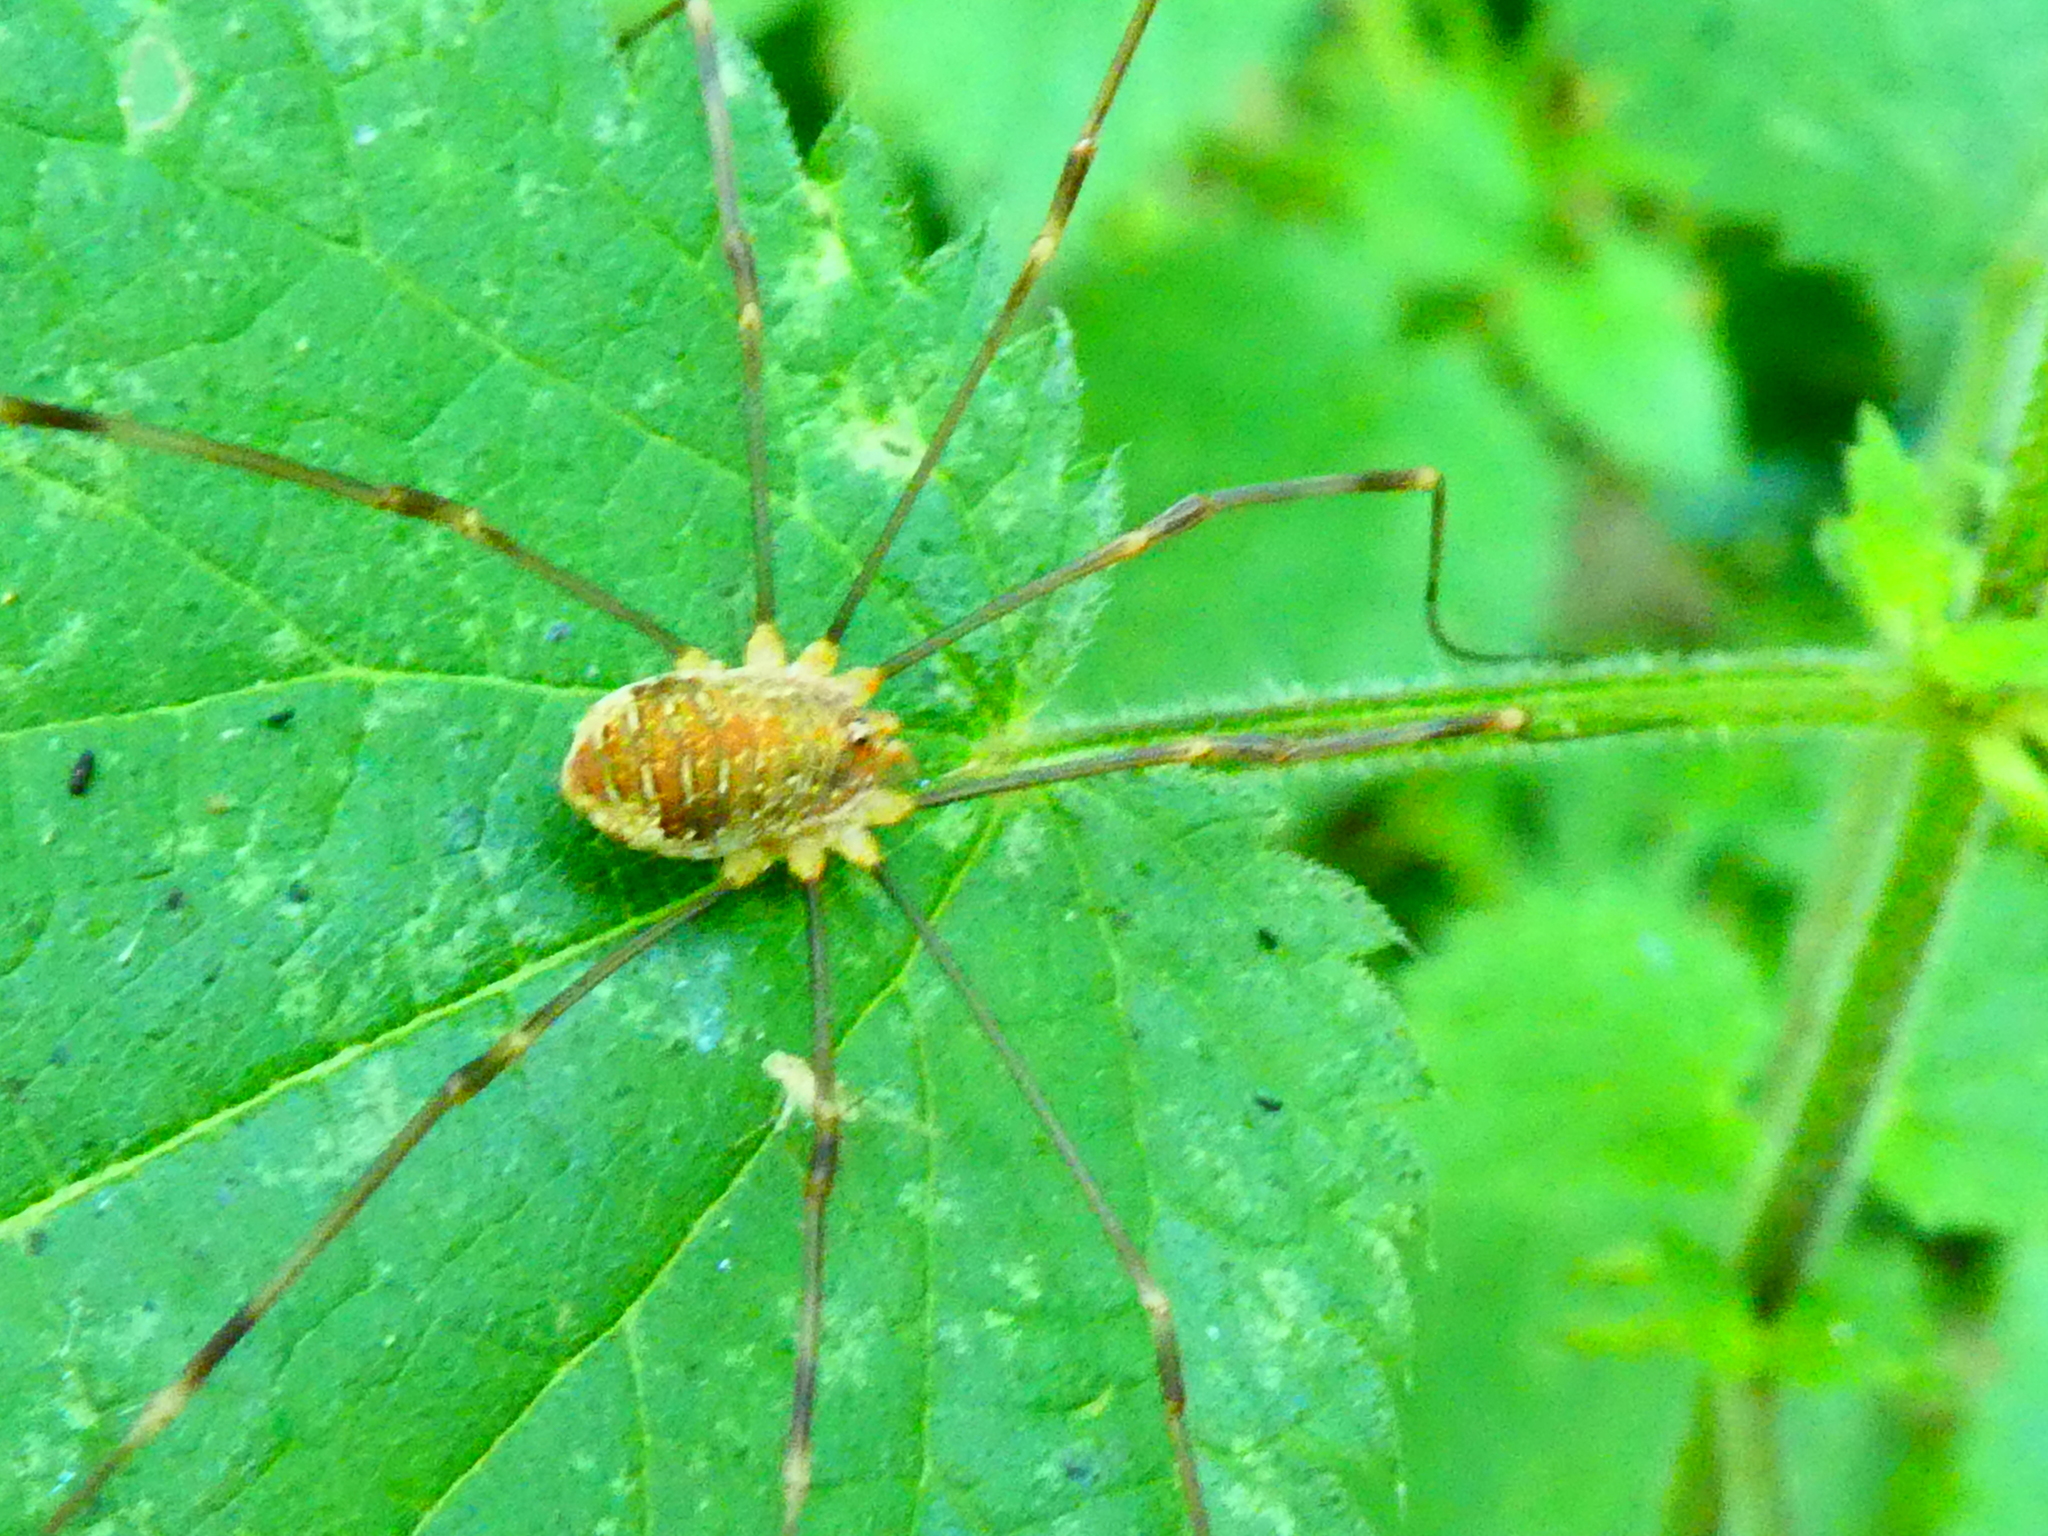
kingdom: Animalia
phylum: Arthropoda
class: Arachnida
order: Opiliones
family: Phalangiidae
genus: Opilio
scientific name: Opilio canestrinii
